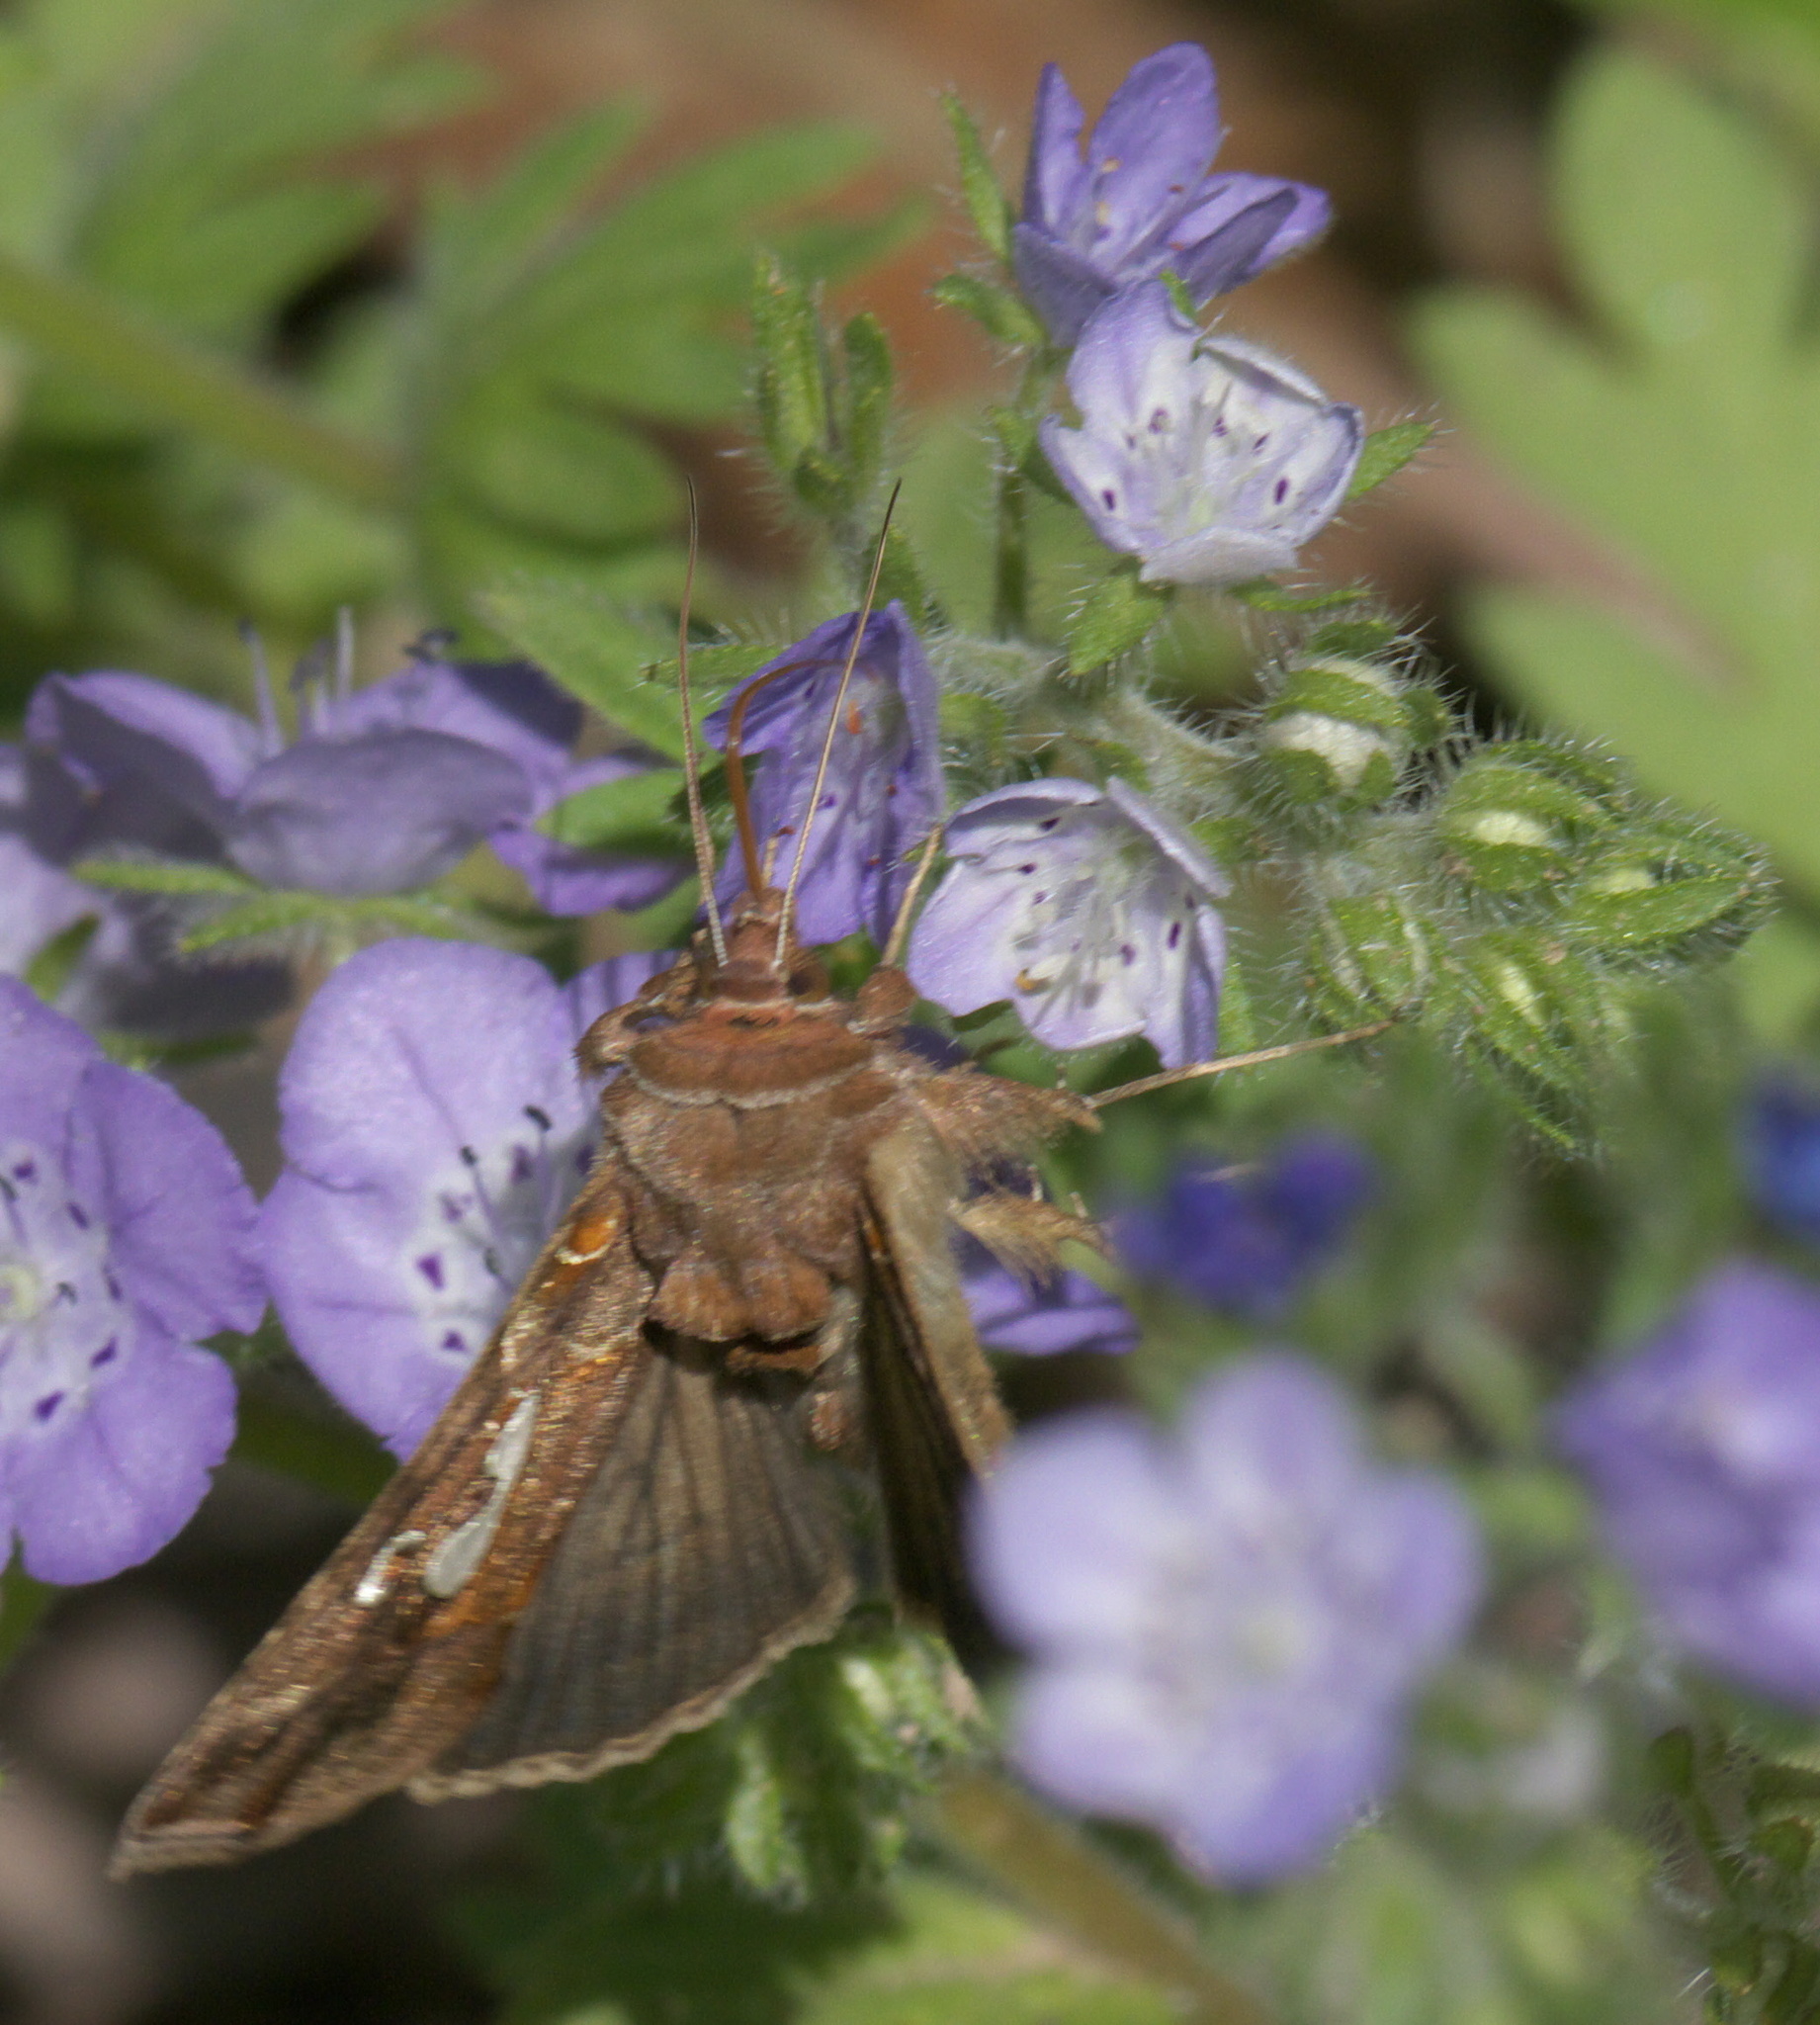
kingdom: Animalia
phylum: Arthropoda
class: Insecta
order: Lepidoptera
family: Noctuidae
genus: Megalographa
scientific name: Megalographa biloba
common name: Cutworm
